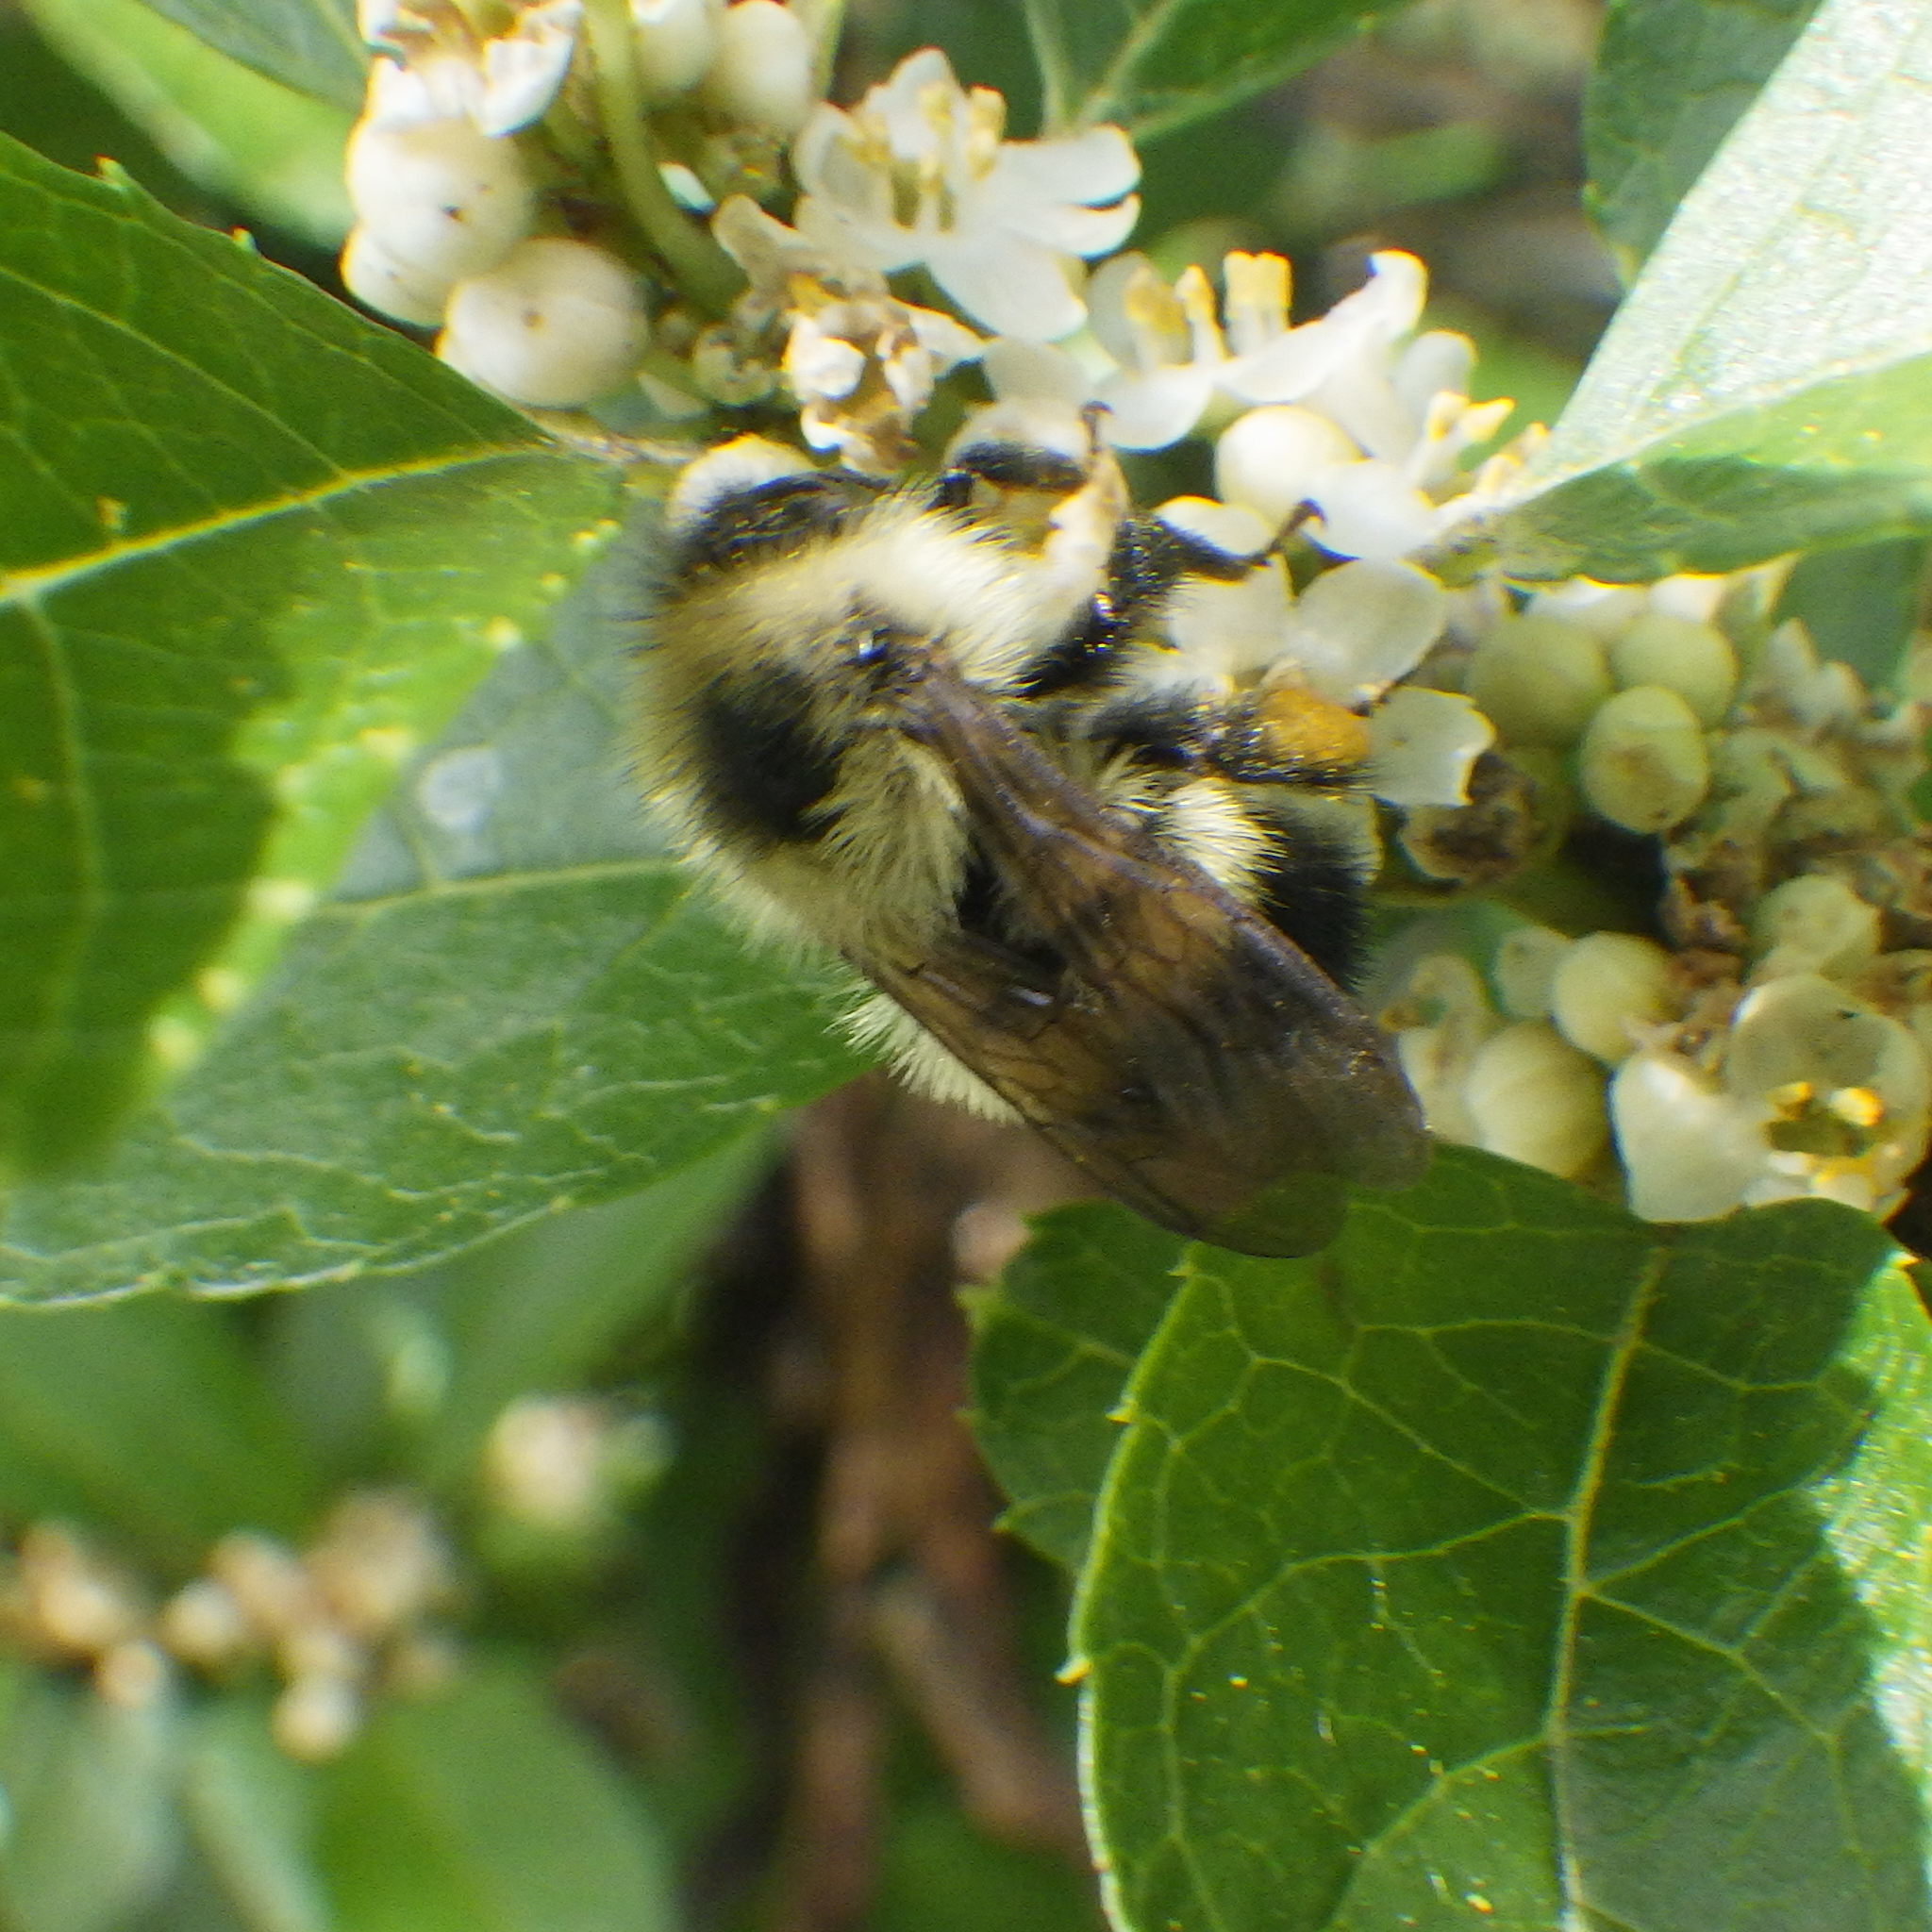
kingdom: Animalia
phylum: Arthropoda
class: Insecta
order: Hymenoptera
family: Apidae
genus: Pyrobombus
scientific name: Pyrobombus
